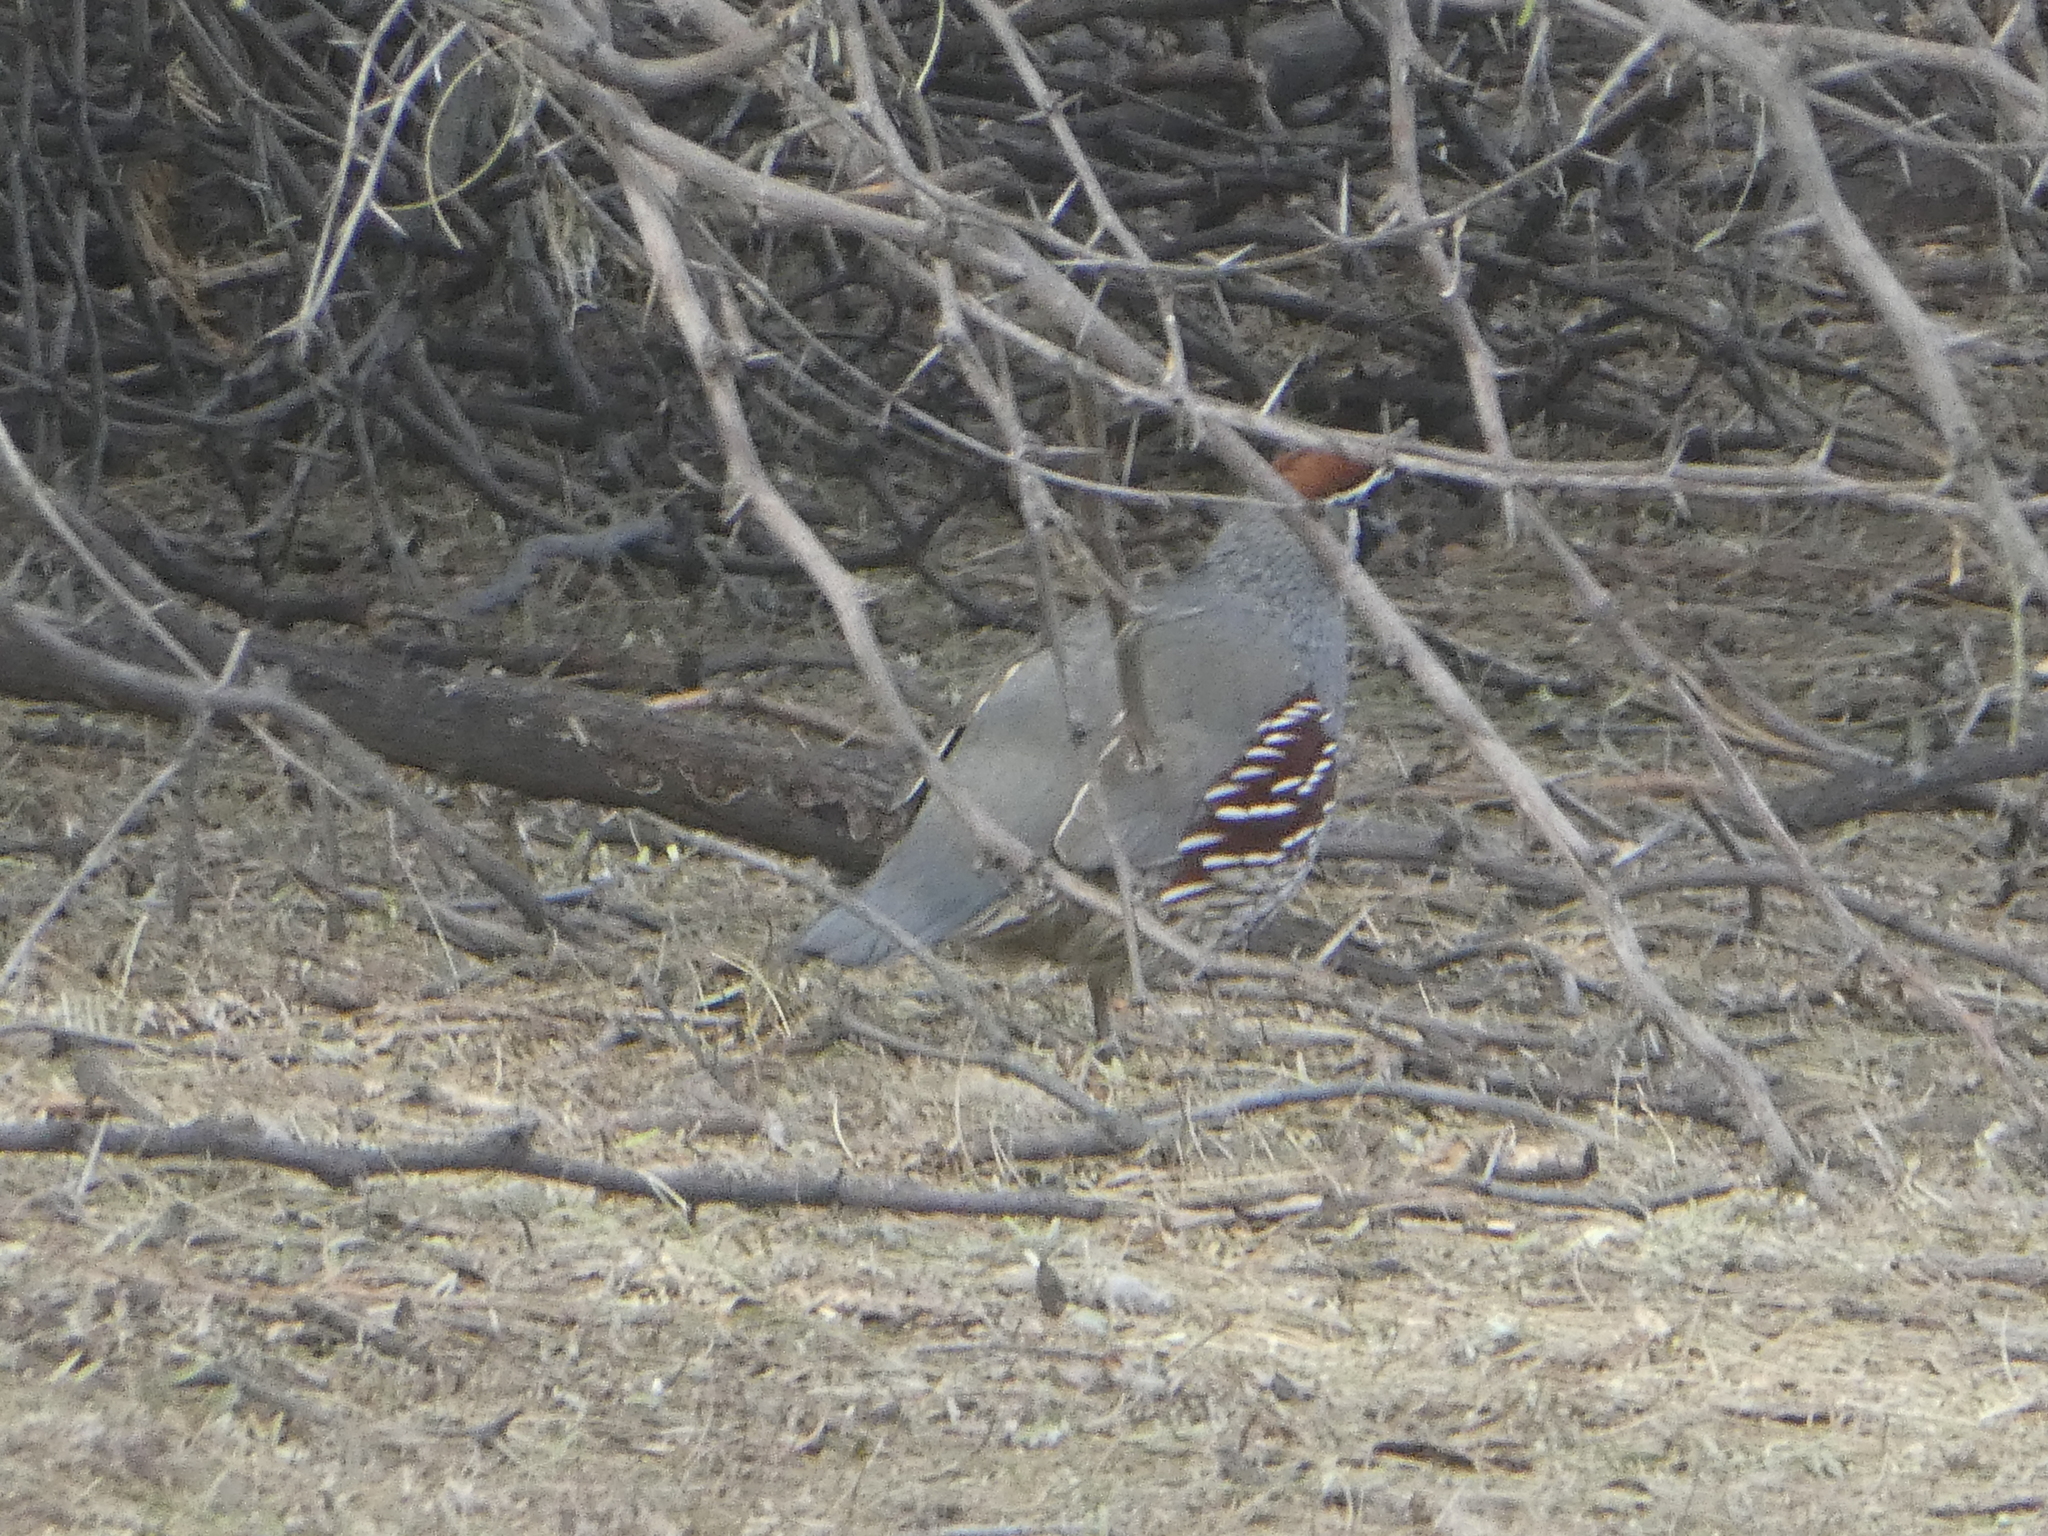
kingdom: Animalia
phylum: Chordata
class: Aves
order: Galliformes
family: Odontophoridae
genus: Callipepla
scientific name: Callipepla gambelii
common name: Gambel's quail
